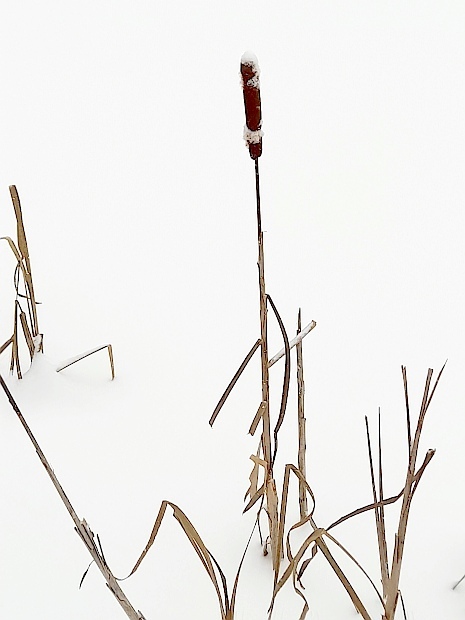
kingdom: Plantae
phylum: Tracheophyta
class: Liliopsida
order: Poales
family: Typhaceae
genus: Typha
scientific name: Typha latifolia
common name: Broadleaf cattail
